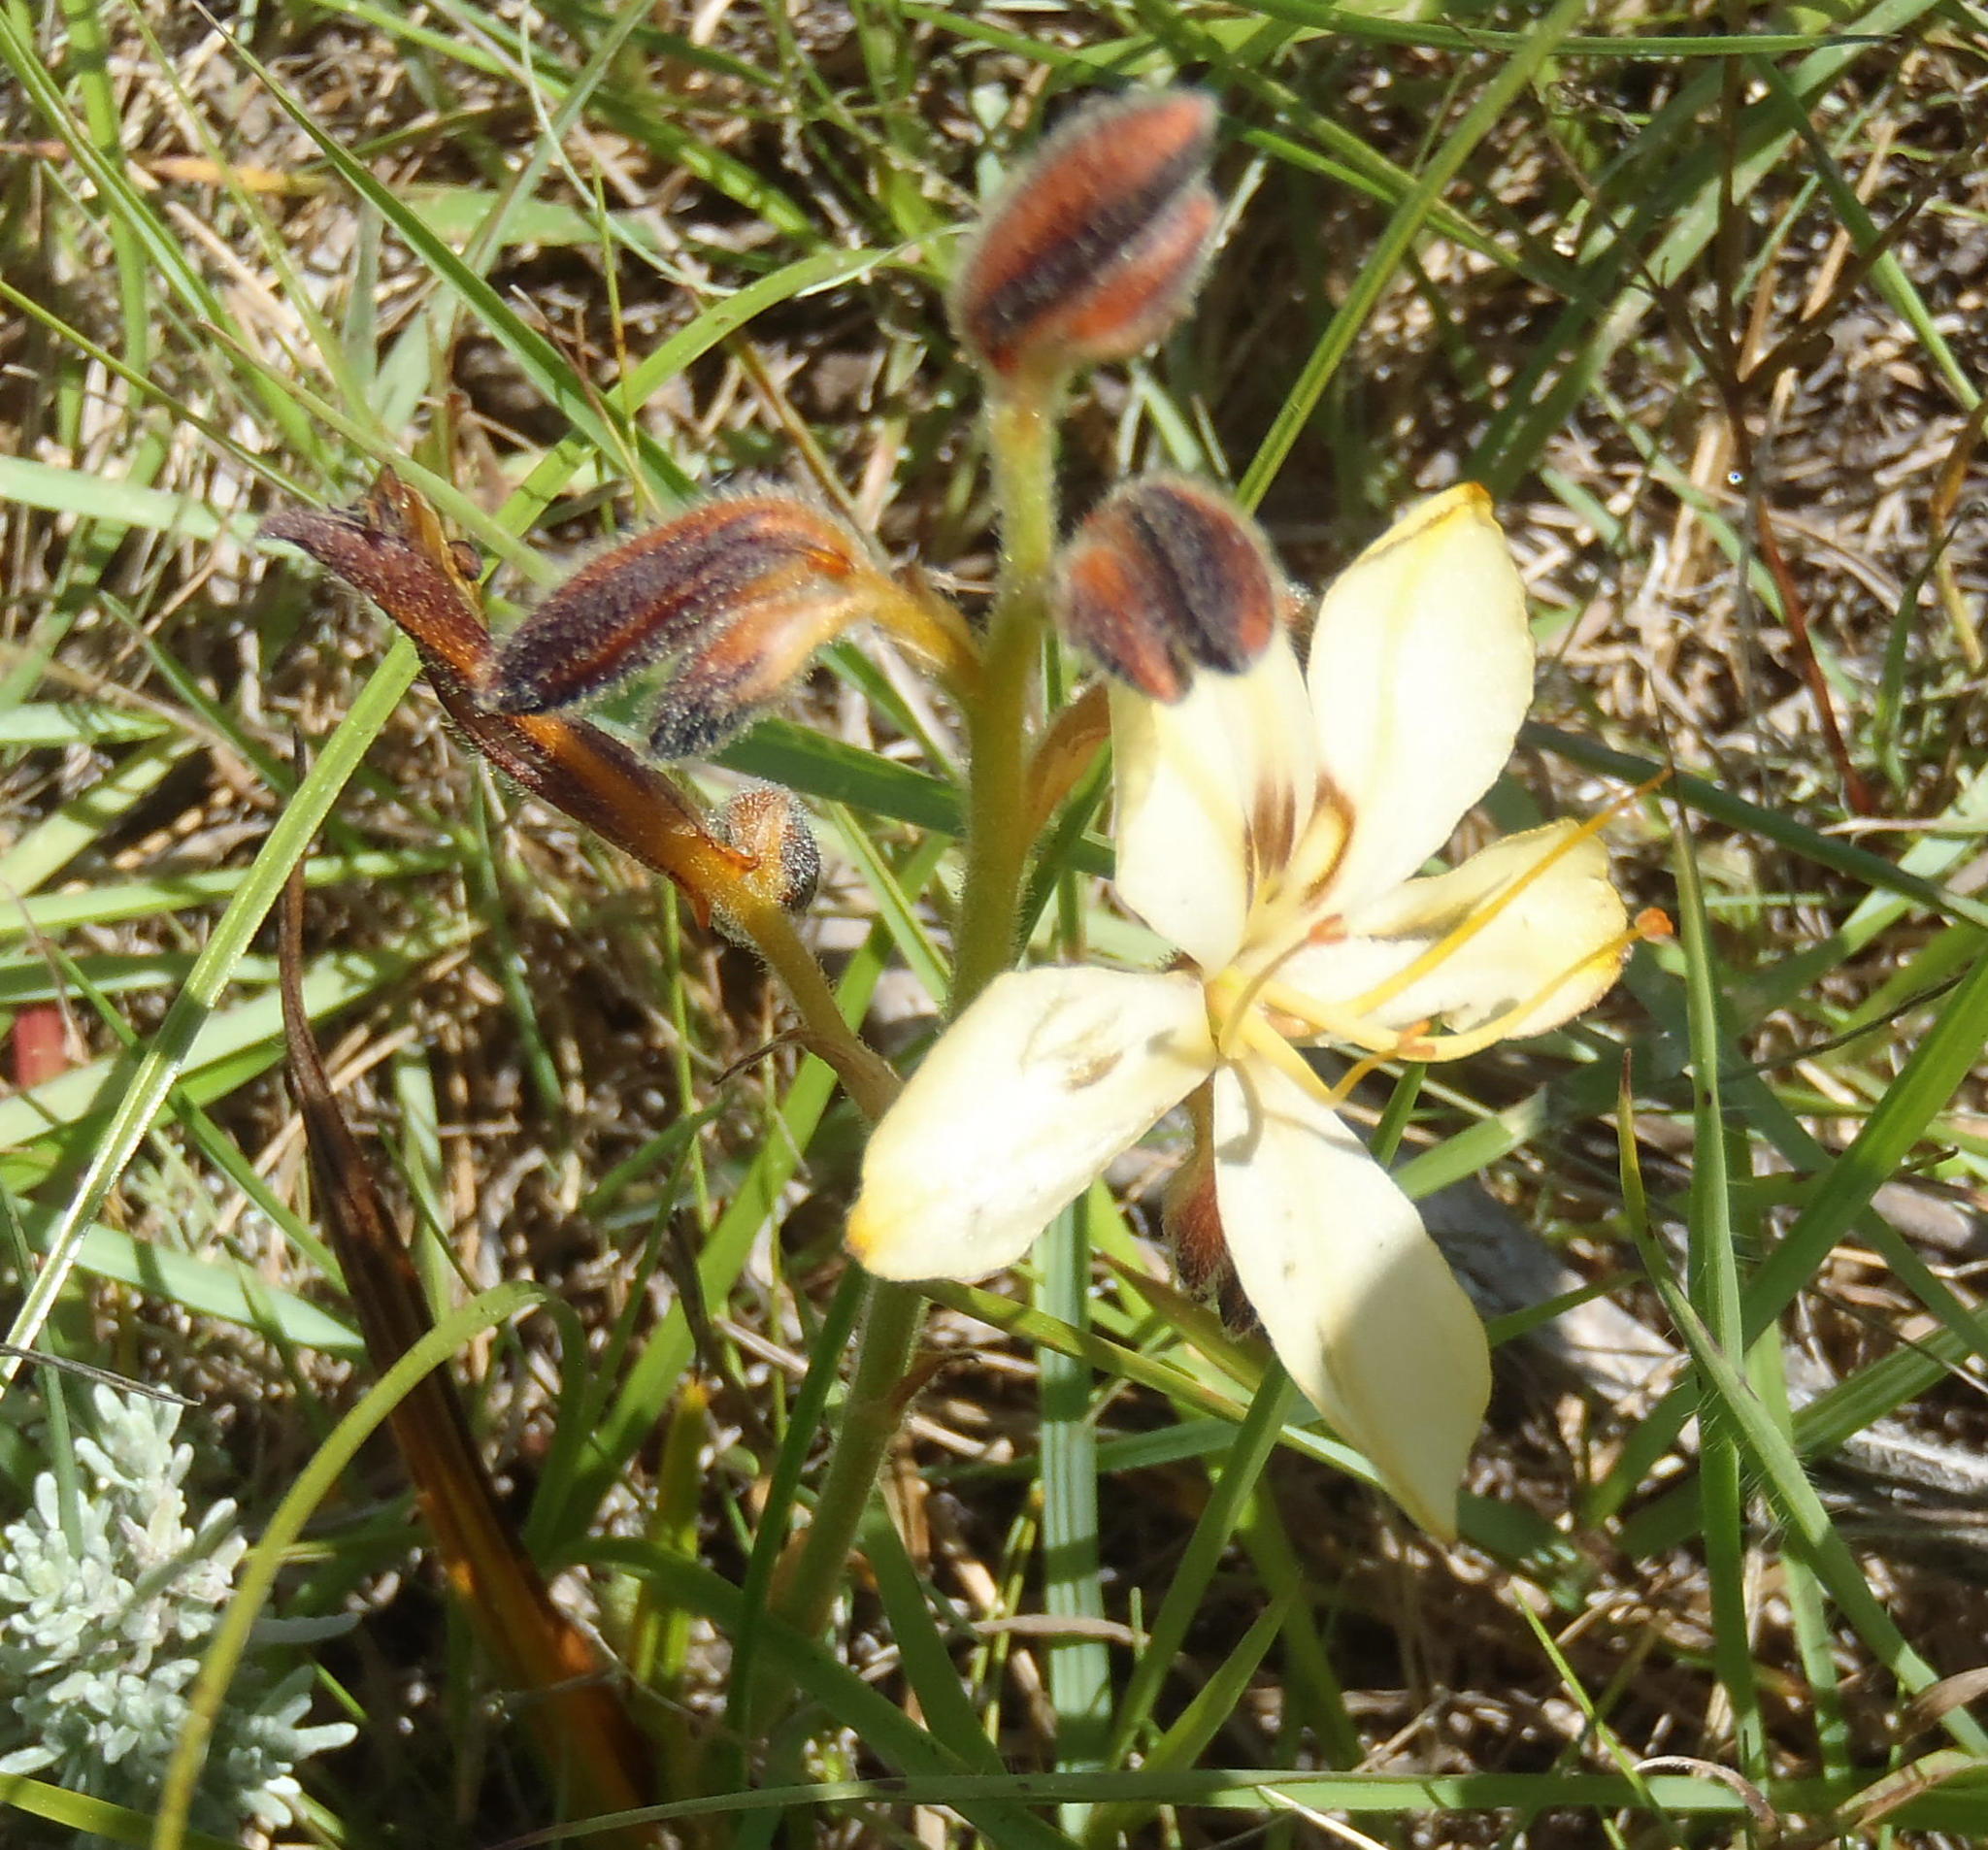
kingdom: Plantae
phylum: Tracheophyta
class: Liliopsida
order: Commelinales
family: Haemodoraceae
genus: Wachendorfia
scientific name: Wachendorfia paniculata
